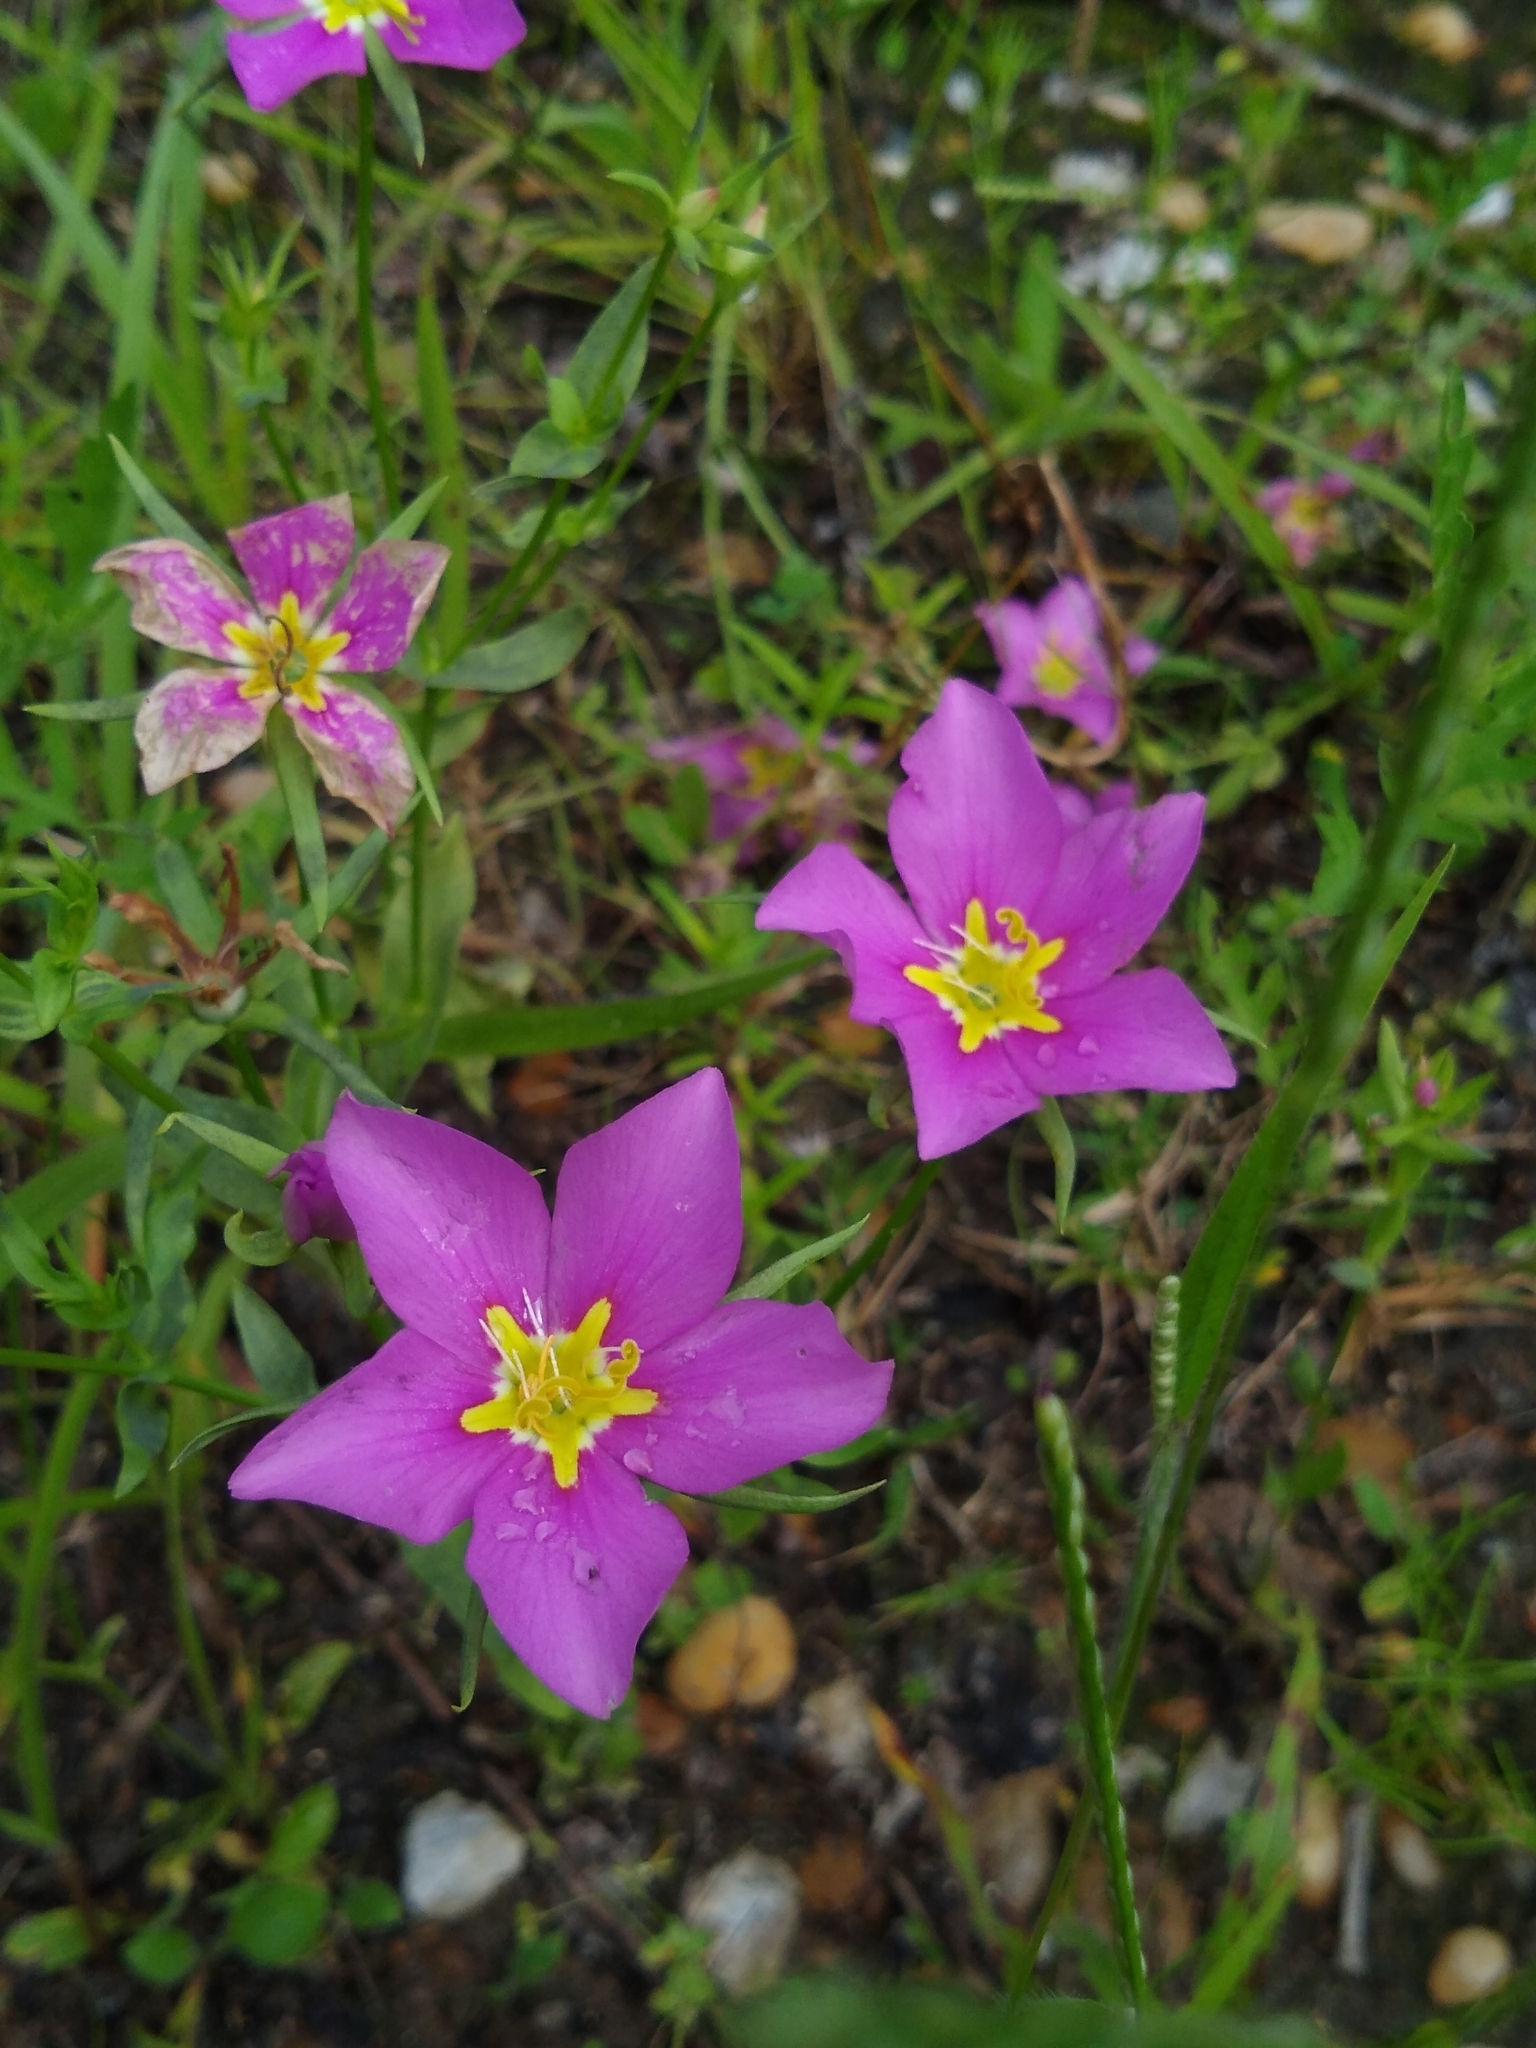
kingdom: Plantae
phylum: Tracheophyta
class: Magnoliopsida
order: Gentianales
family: Gentianaceae
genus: Sabatia
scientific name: Sabatia campestris
